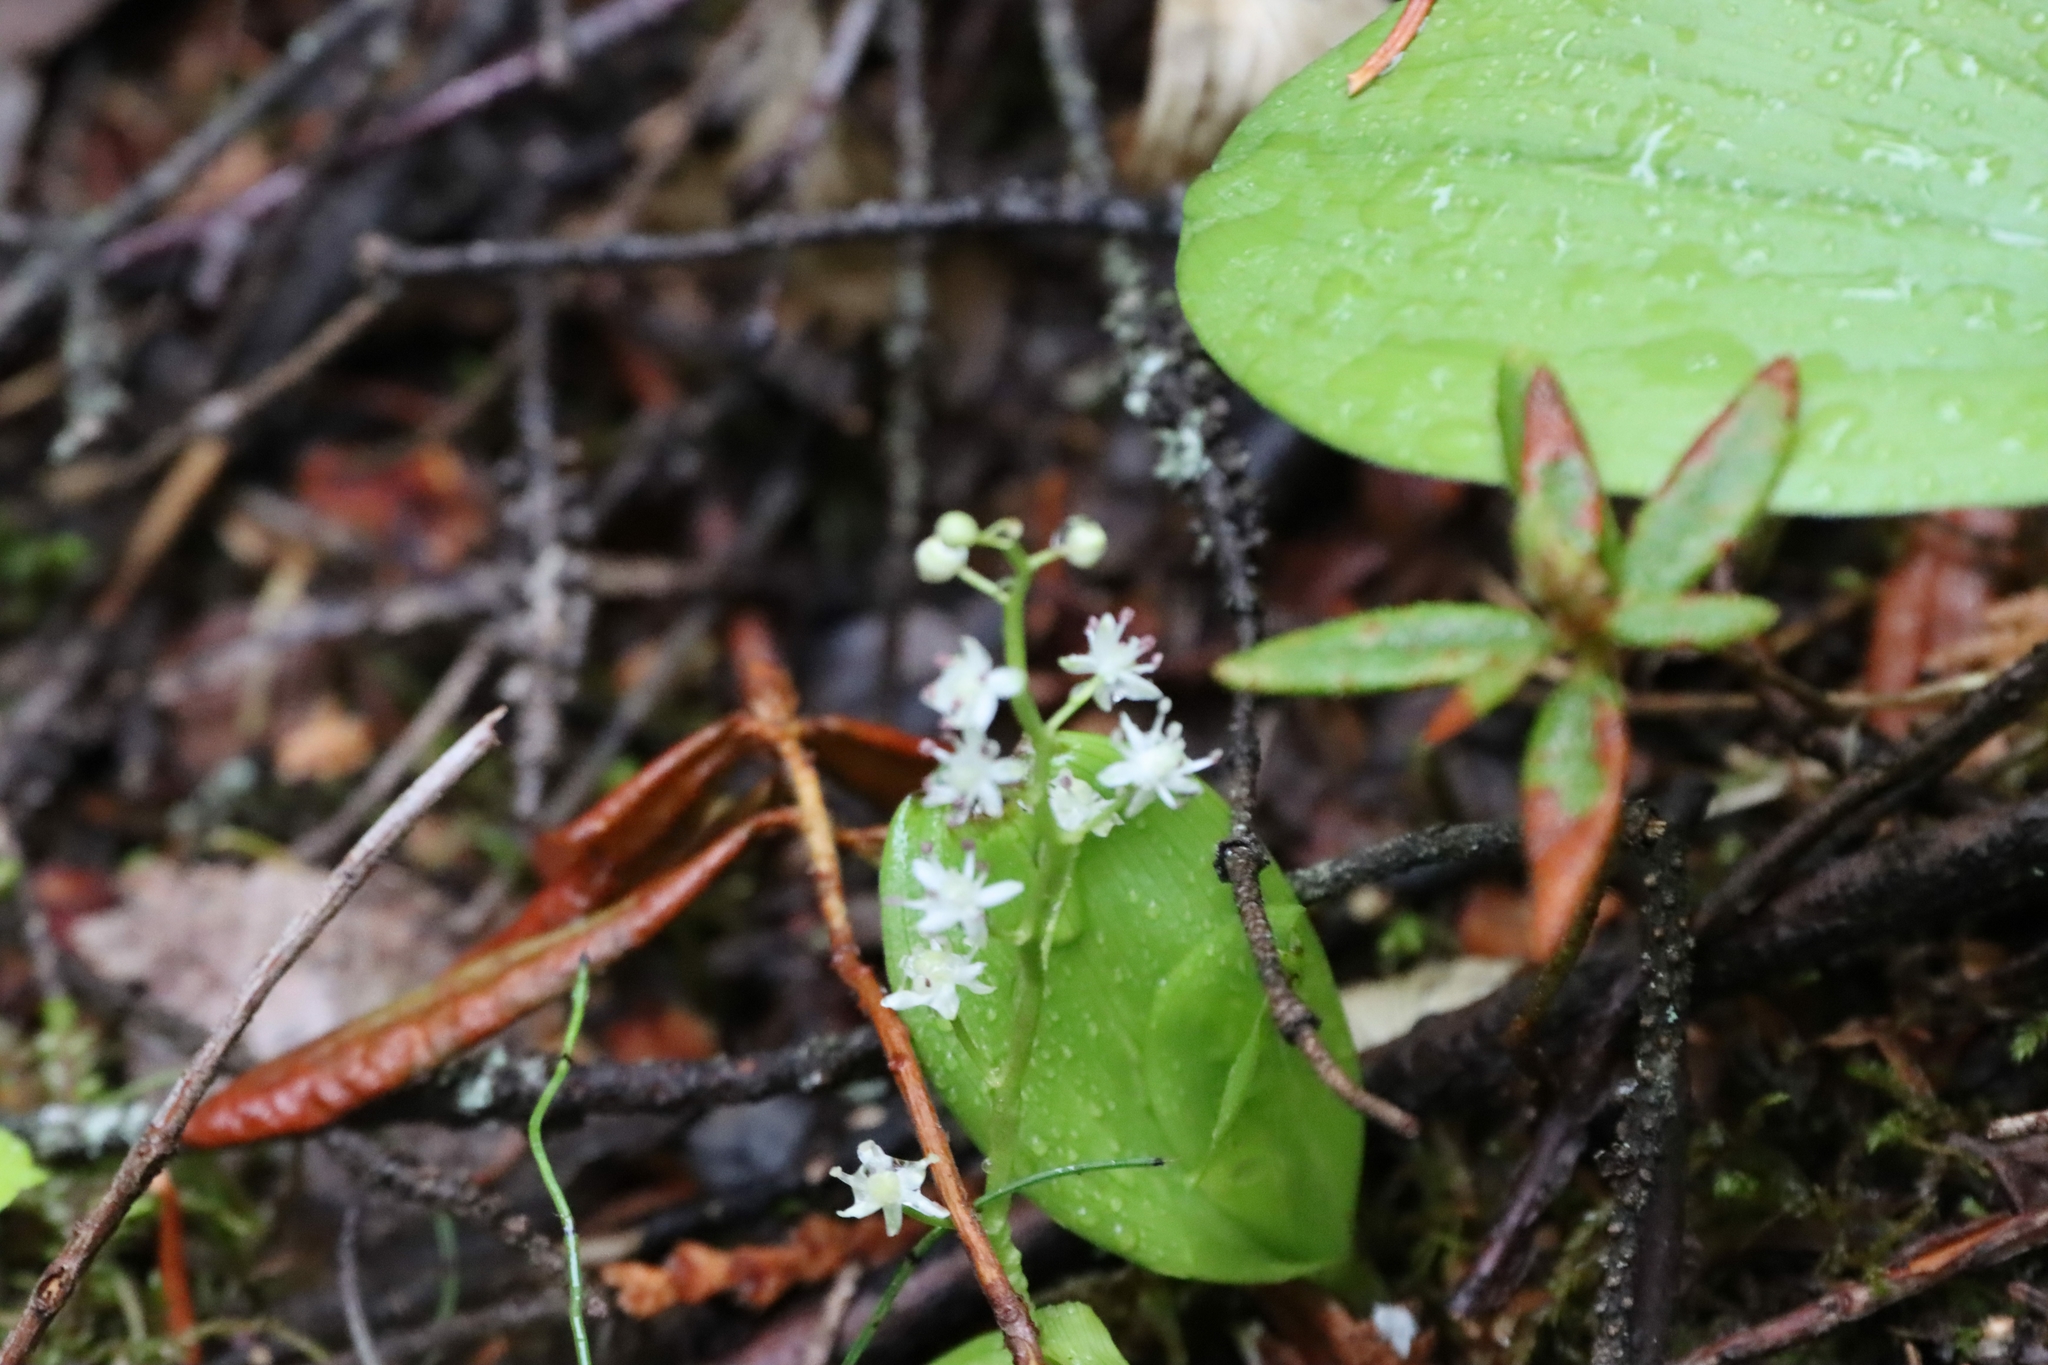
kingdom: Plantae
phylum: Tracheophyta
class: Liliopsida
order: Asparagales
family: Asparagaceae
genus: Maianthemum
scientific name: Maianthemum trifolium
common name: Swamp false solomon's seal
